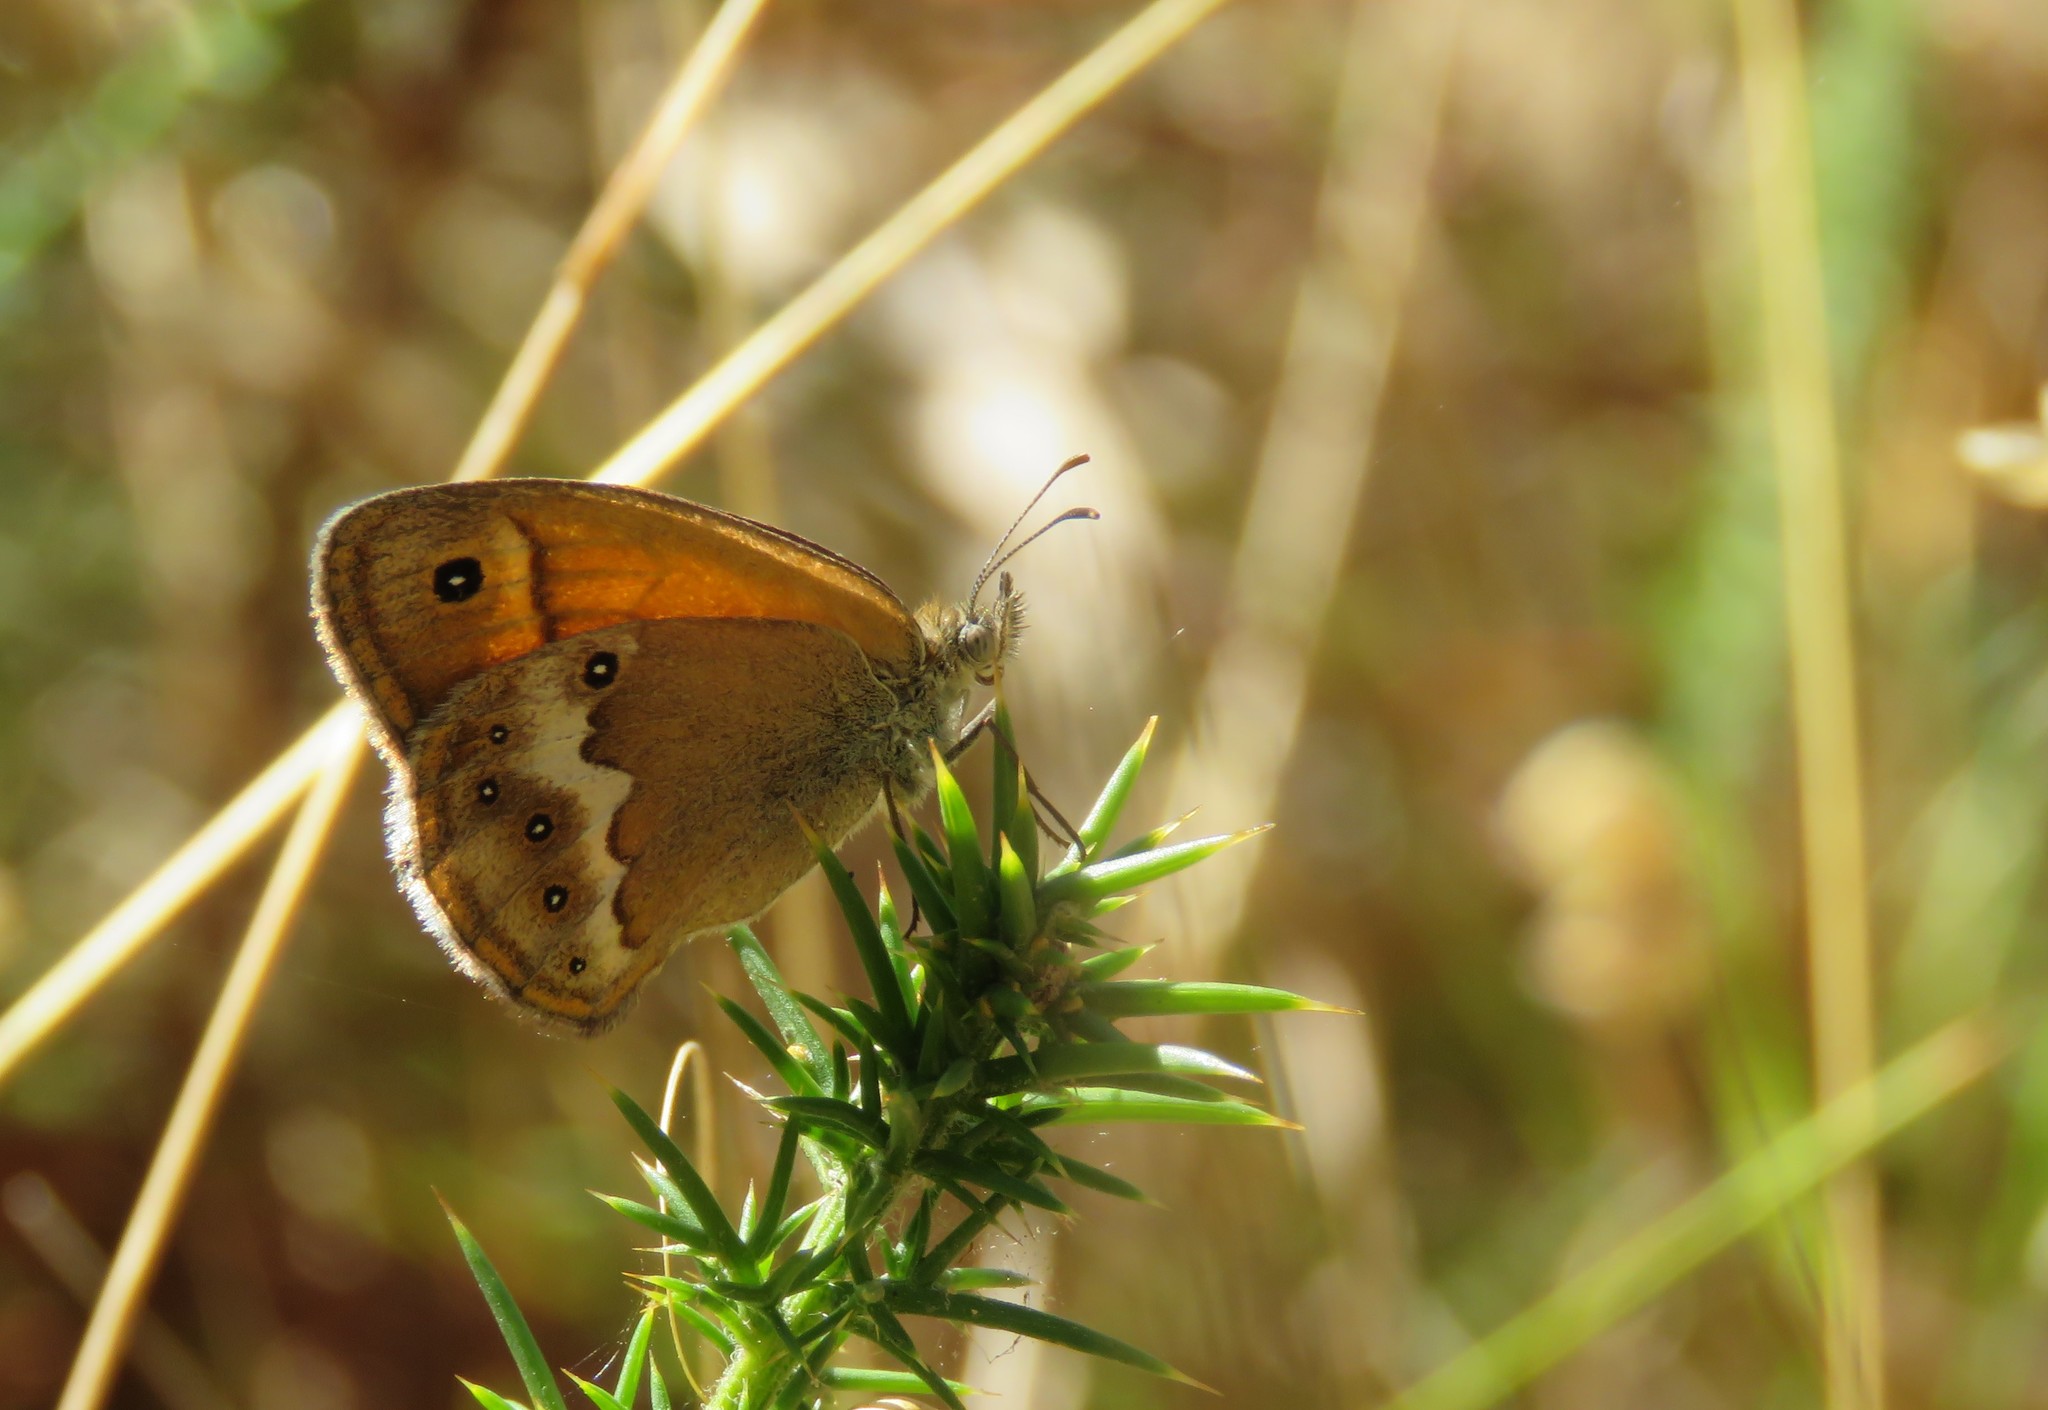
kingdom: Animalia
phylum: Arthropoda
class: Insecta
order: Lepidoptera
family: Nymphalidae
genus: Coenonympha
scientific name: Coenonympha dorus
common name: Dusky heath
